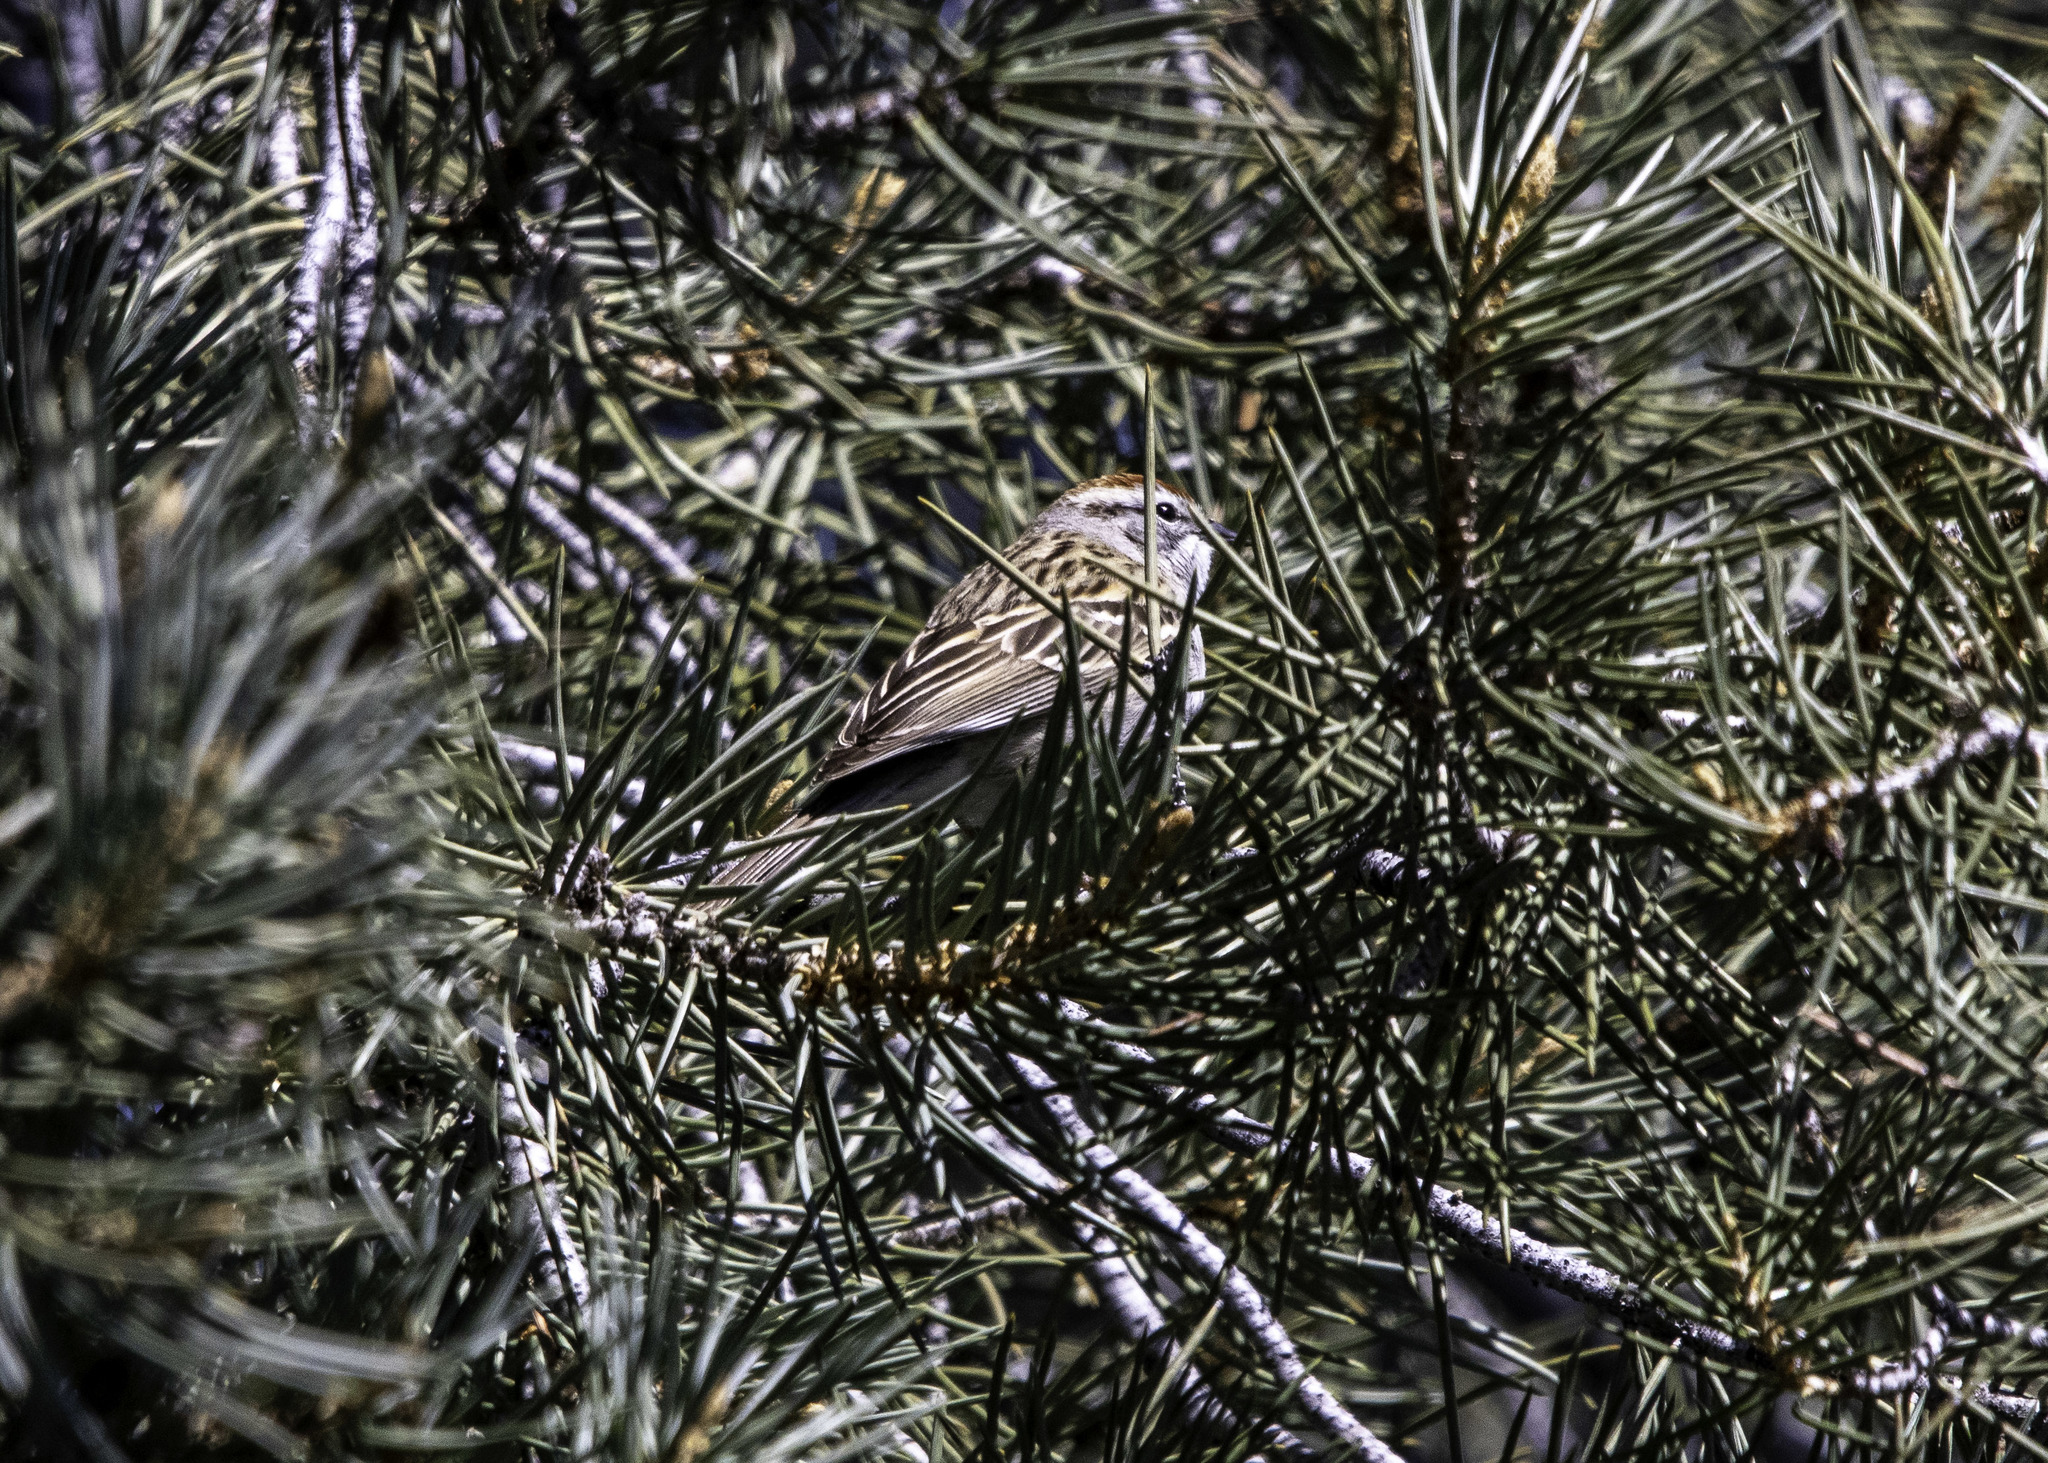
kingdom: Animalia
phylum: Chordata
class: Aves
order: Passeriformes
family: Passerellidae
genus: Spizella
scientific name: Spizella passerina
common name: Chipping sparrow
